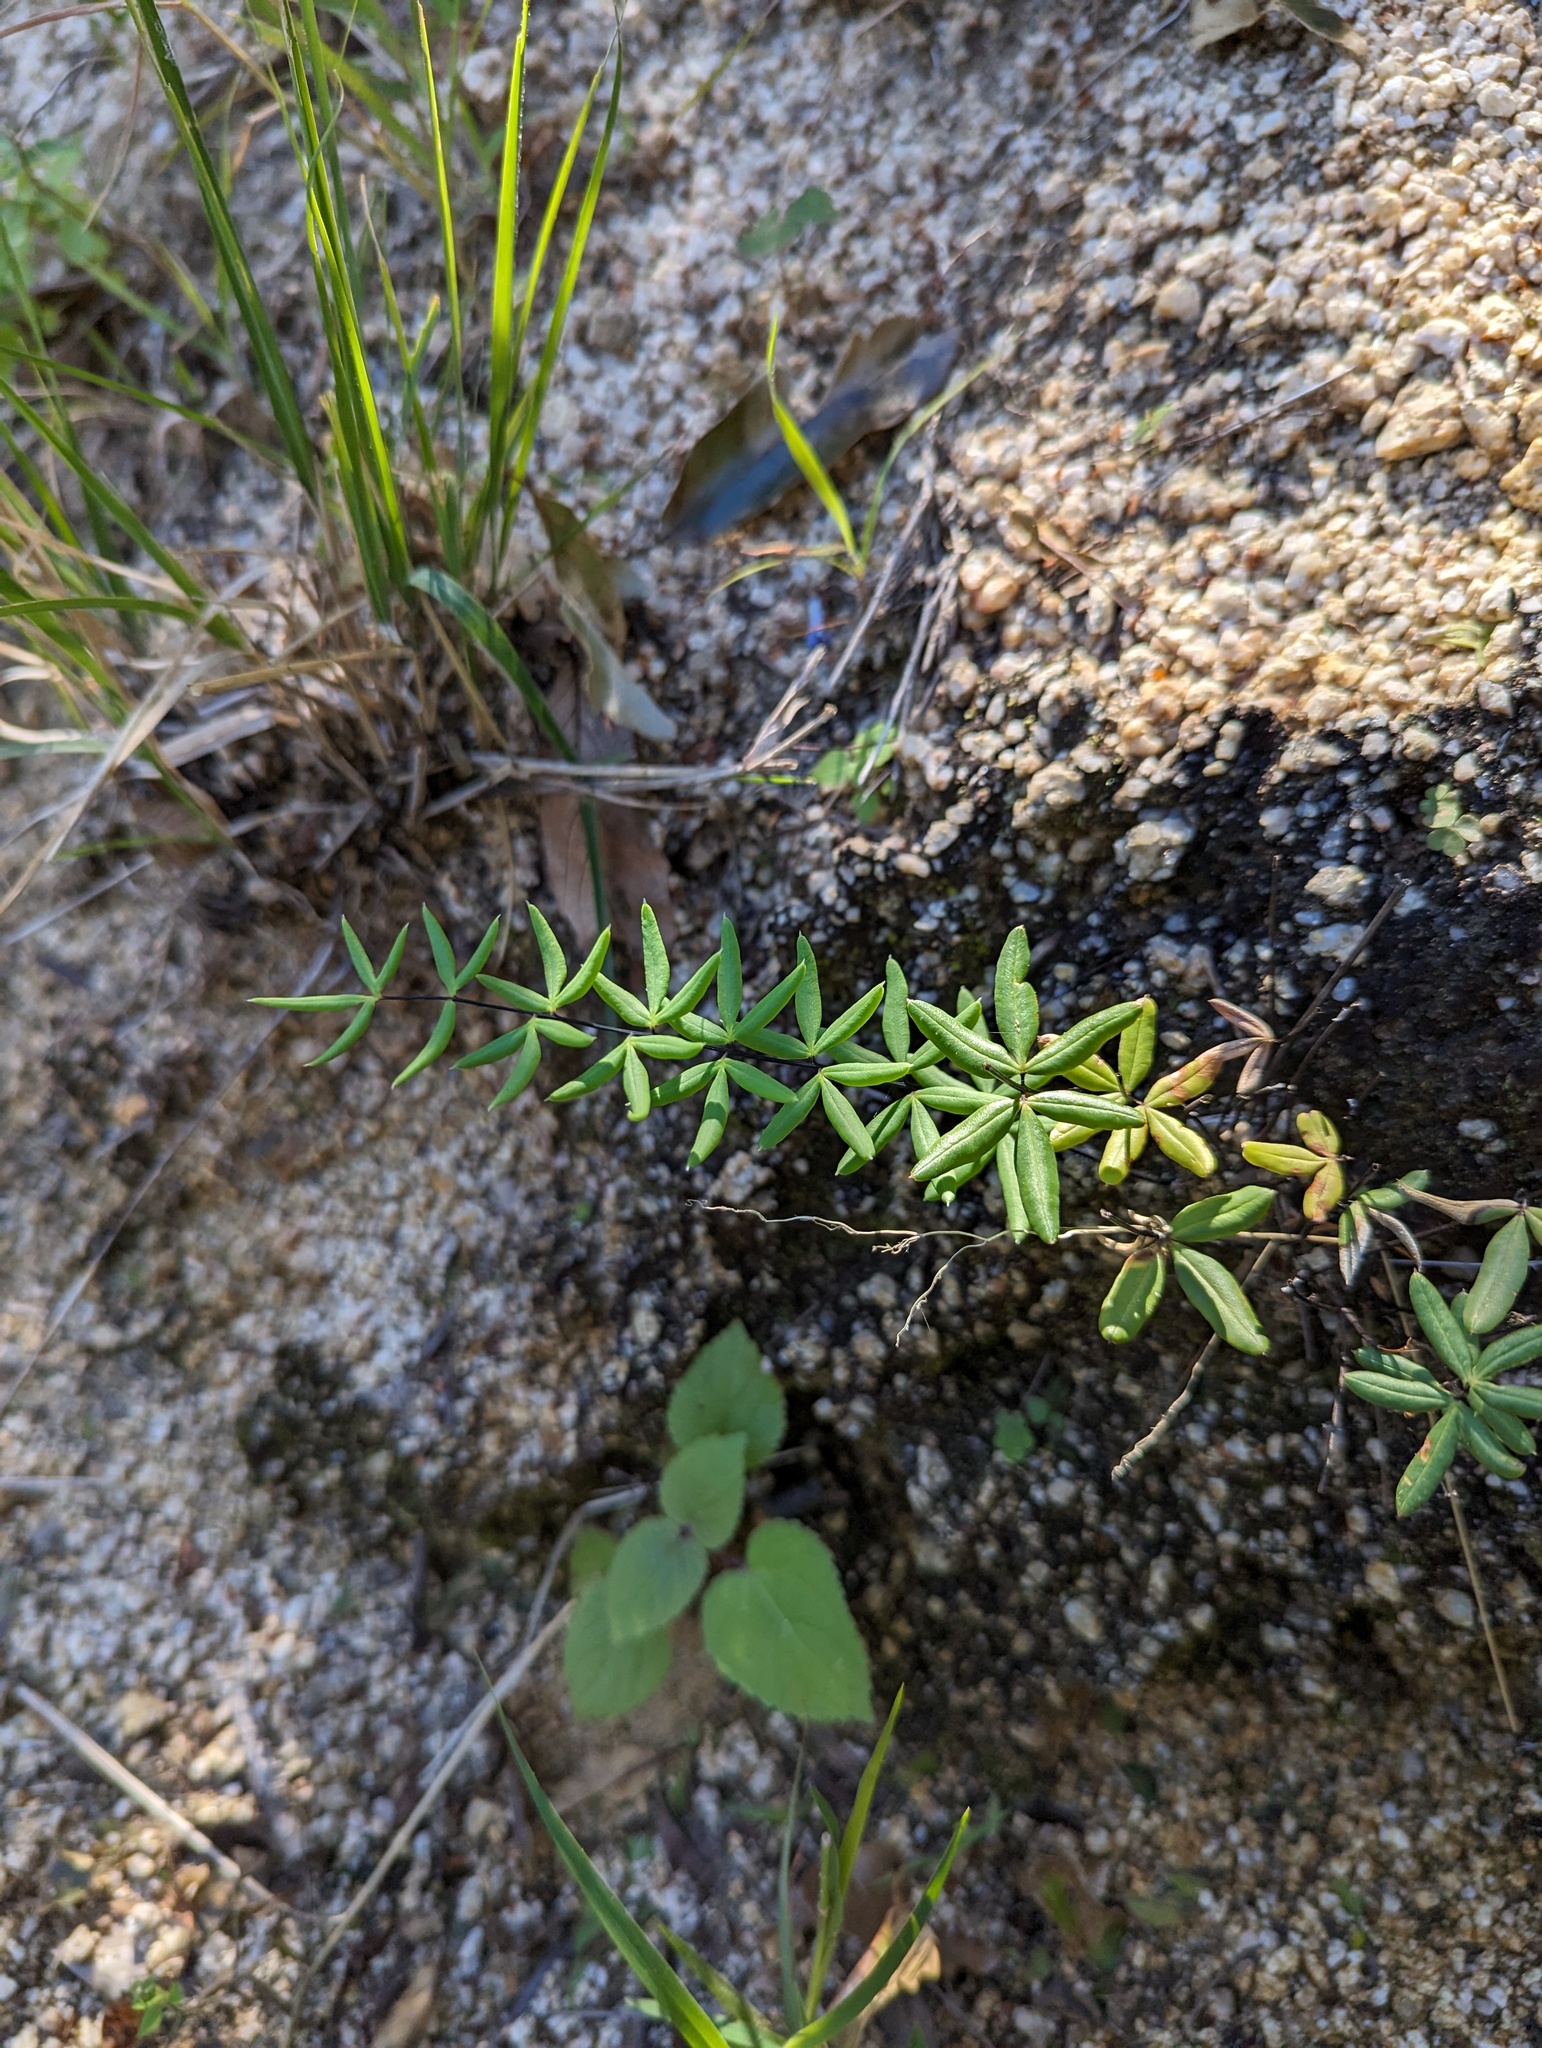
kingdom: Plantae
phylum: Tracheophyta
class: Polypodiopsida
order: Polypodiales
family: Pteridaceae
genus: Pellaea
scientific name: Pellaea ternifolia
